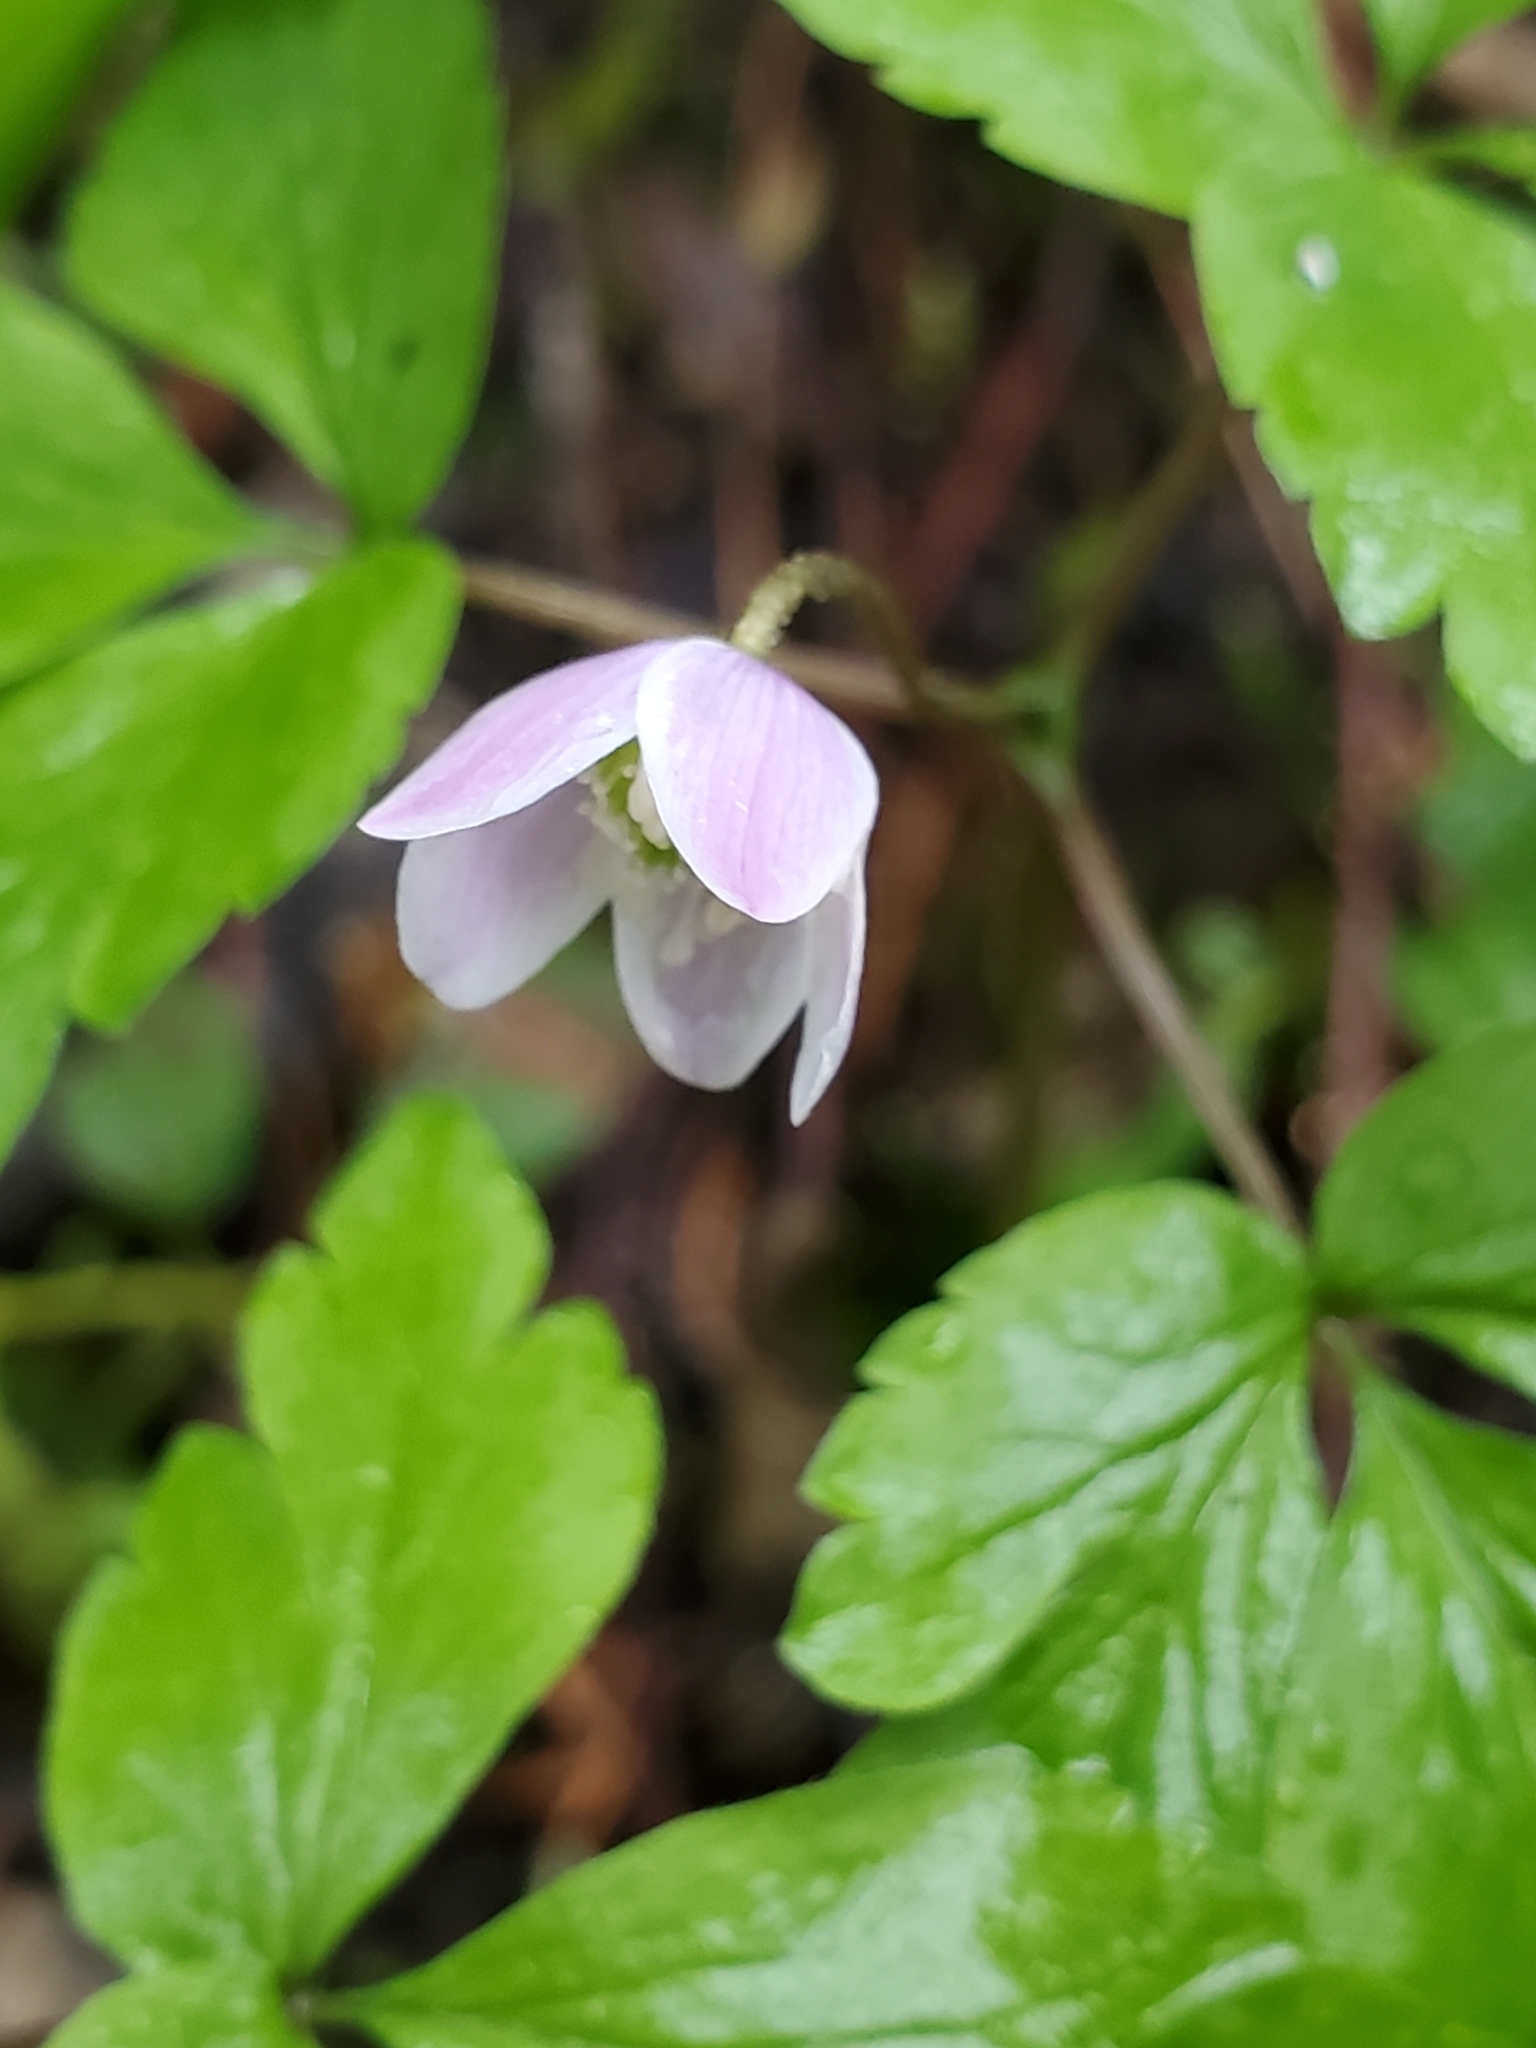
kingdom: Plantae
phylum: Tracheophyta
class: Magnoliopsida
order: Ranunculales
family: Ranunculaceae
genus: Anemone
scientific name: Anemone
